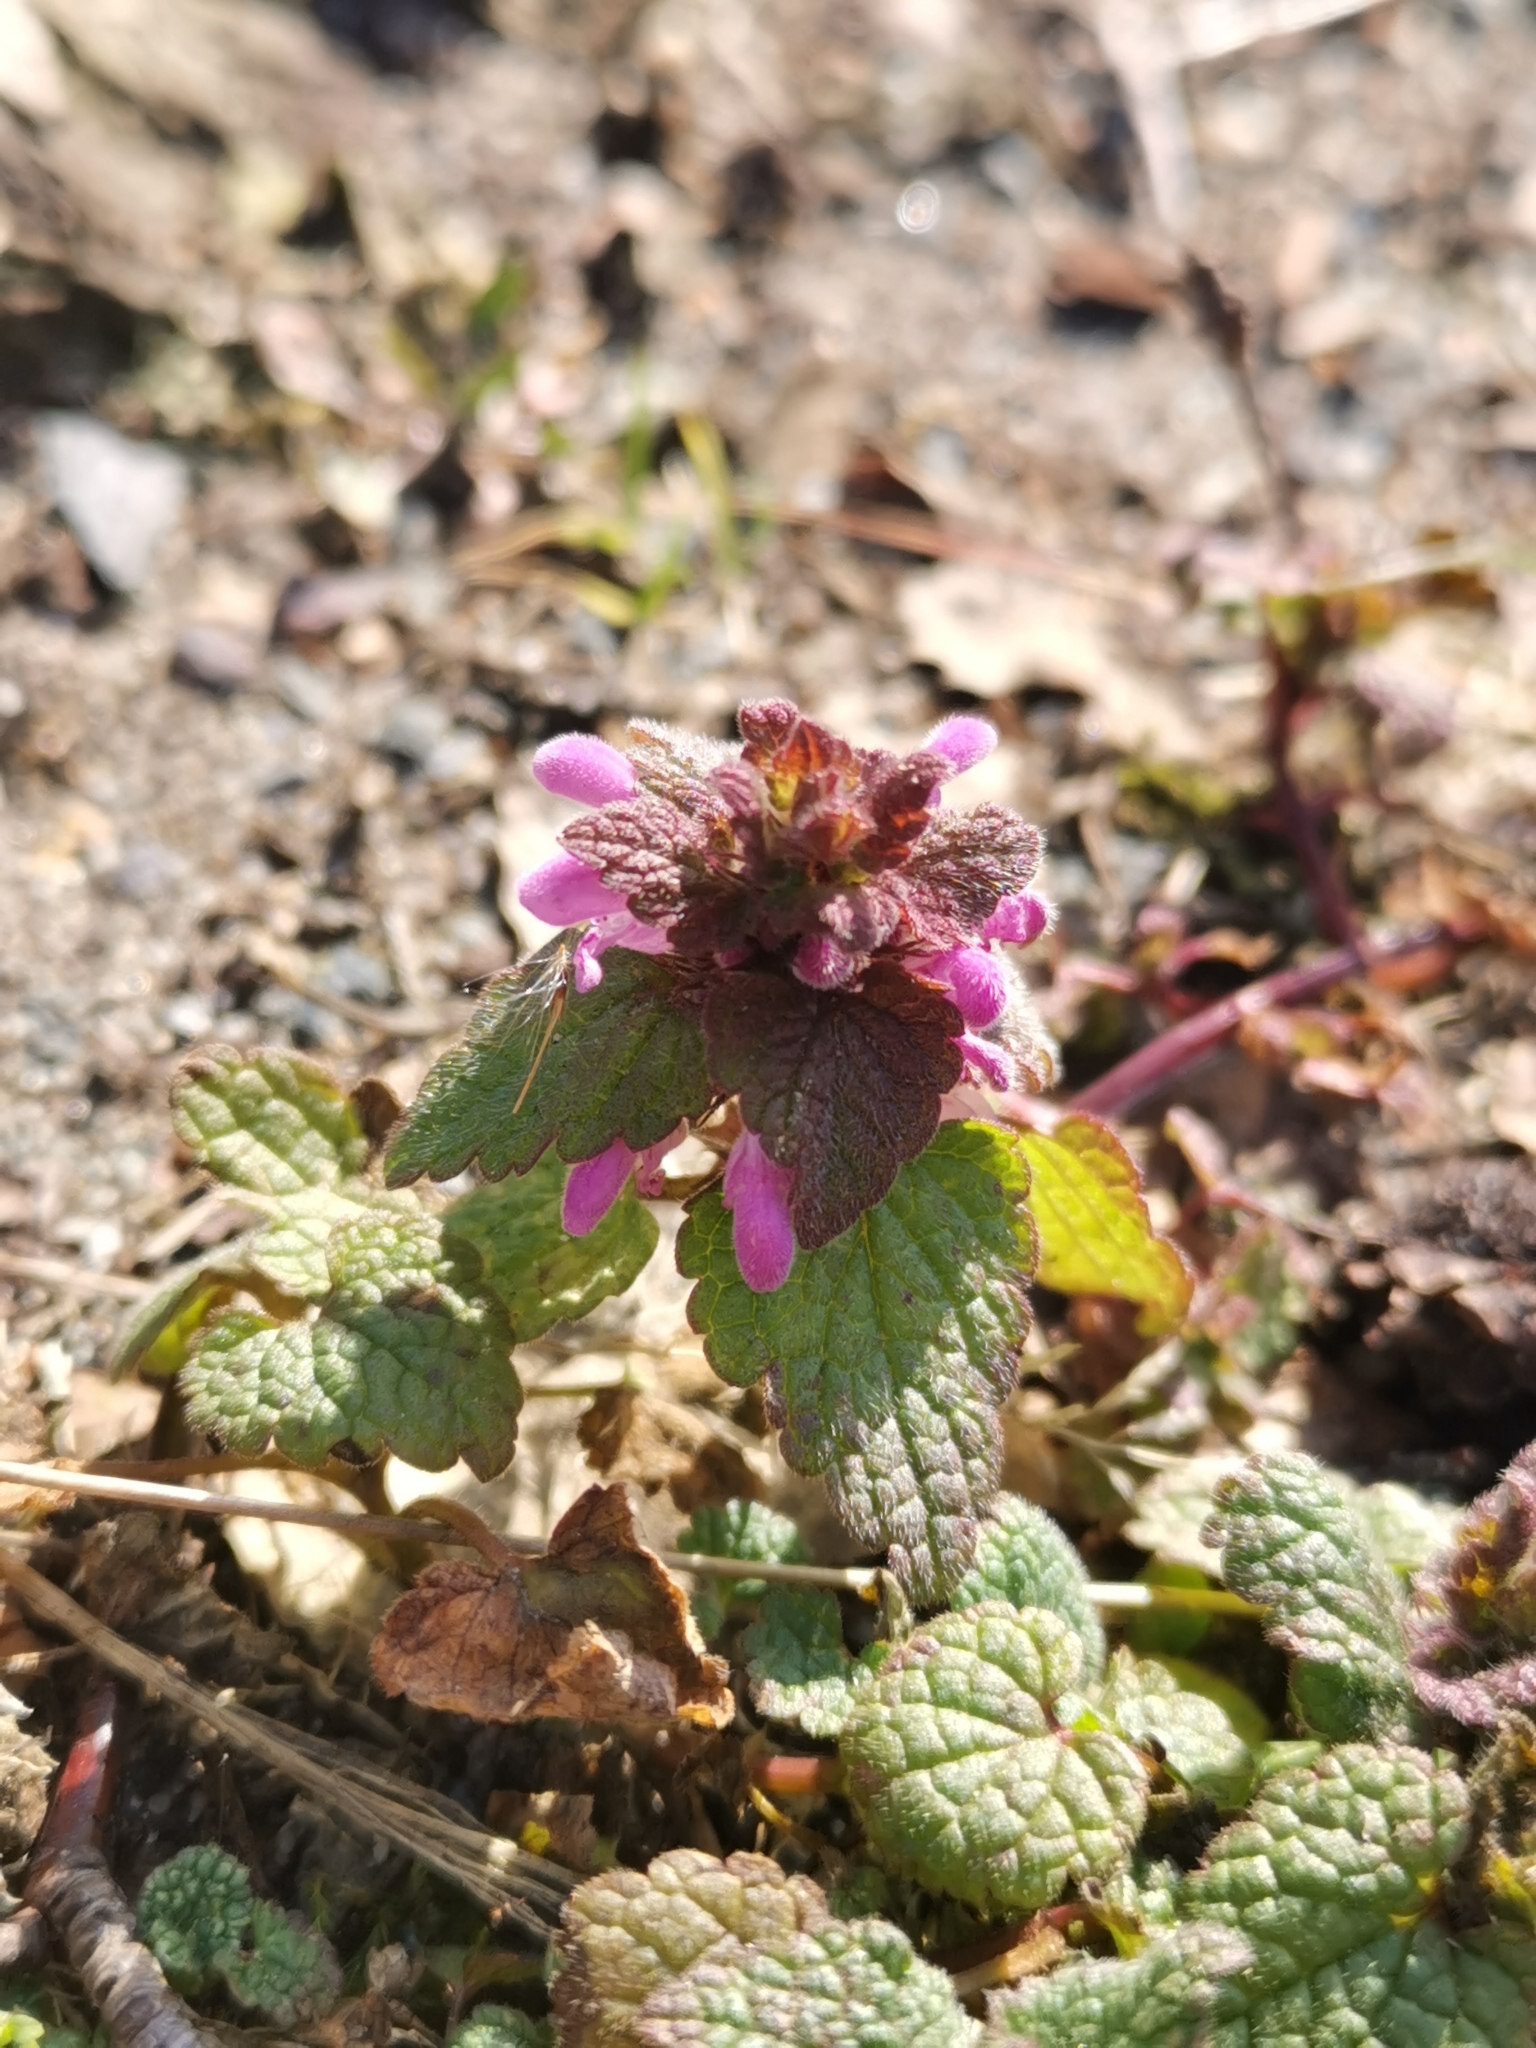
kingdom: Plantae
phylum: Tracheophyta
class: Magnoliopsida
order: Lamiales
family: Lamiaceae
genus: Lamium
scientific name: Lamium purpureum
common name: Red dead-nettle
